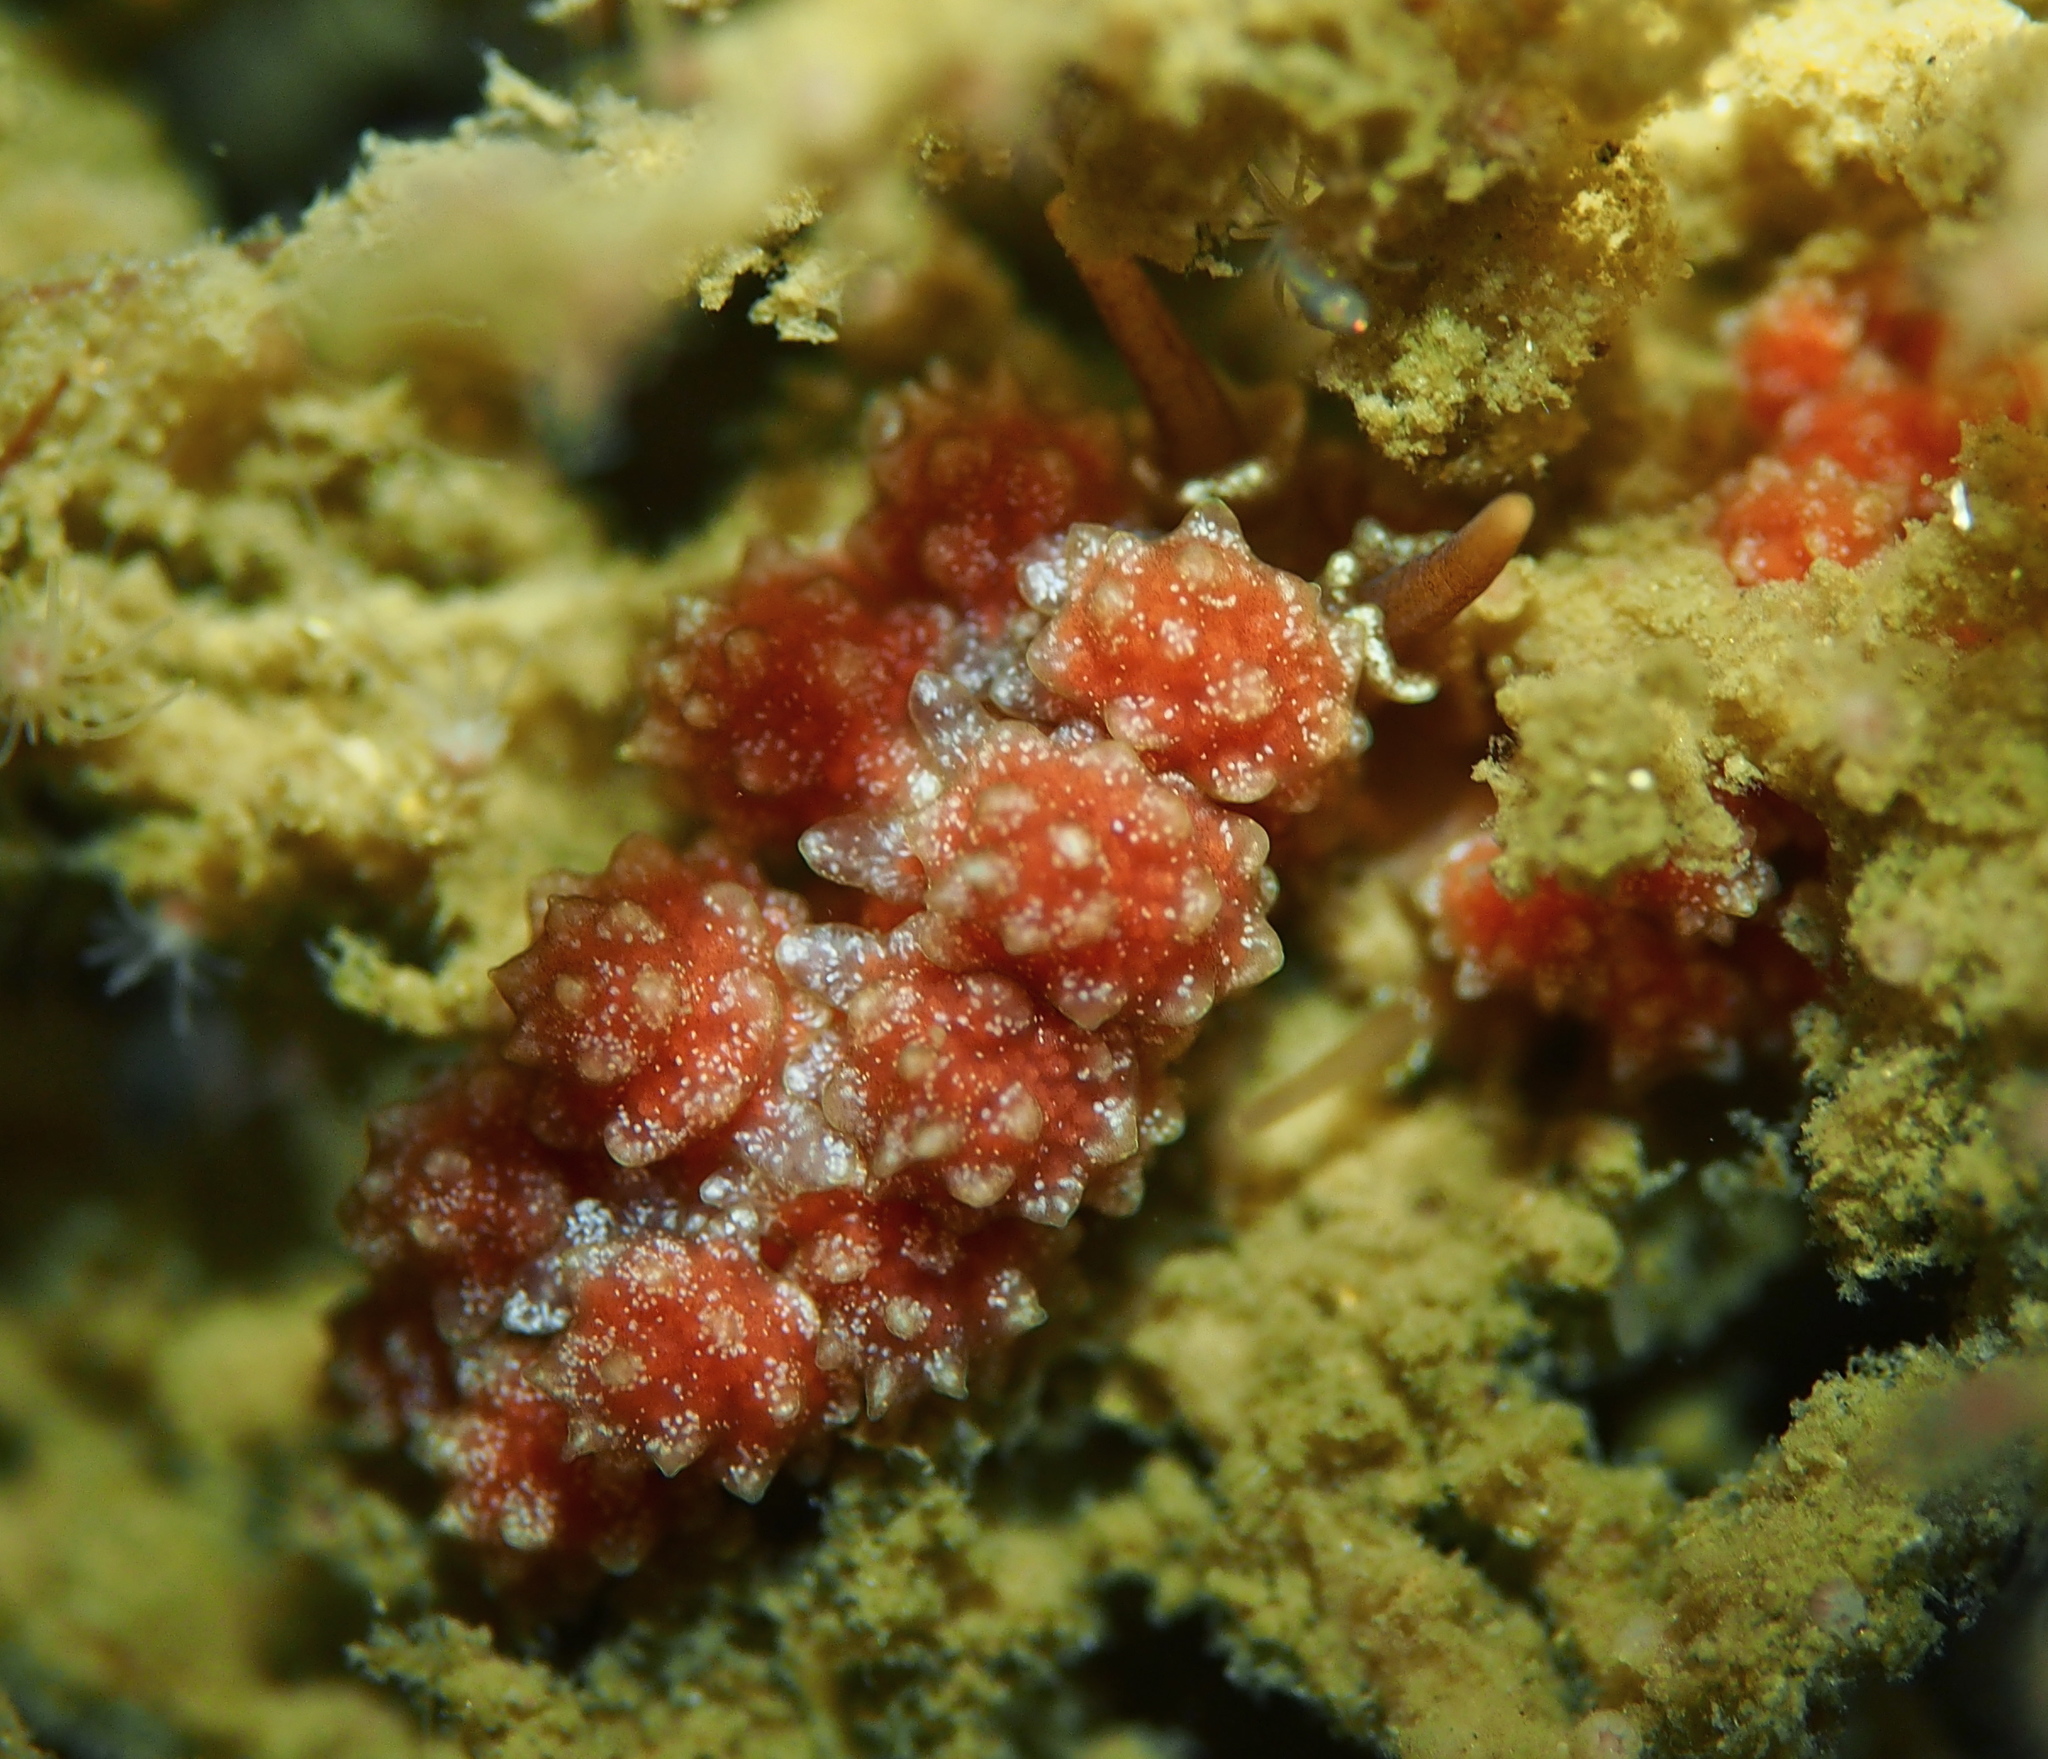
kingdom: Animalia
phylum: Mollusca
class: Gastropoda
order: Nudibranchia
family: Dotidae
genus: Doto
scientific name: Doto fragilis
